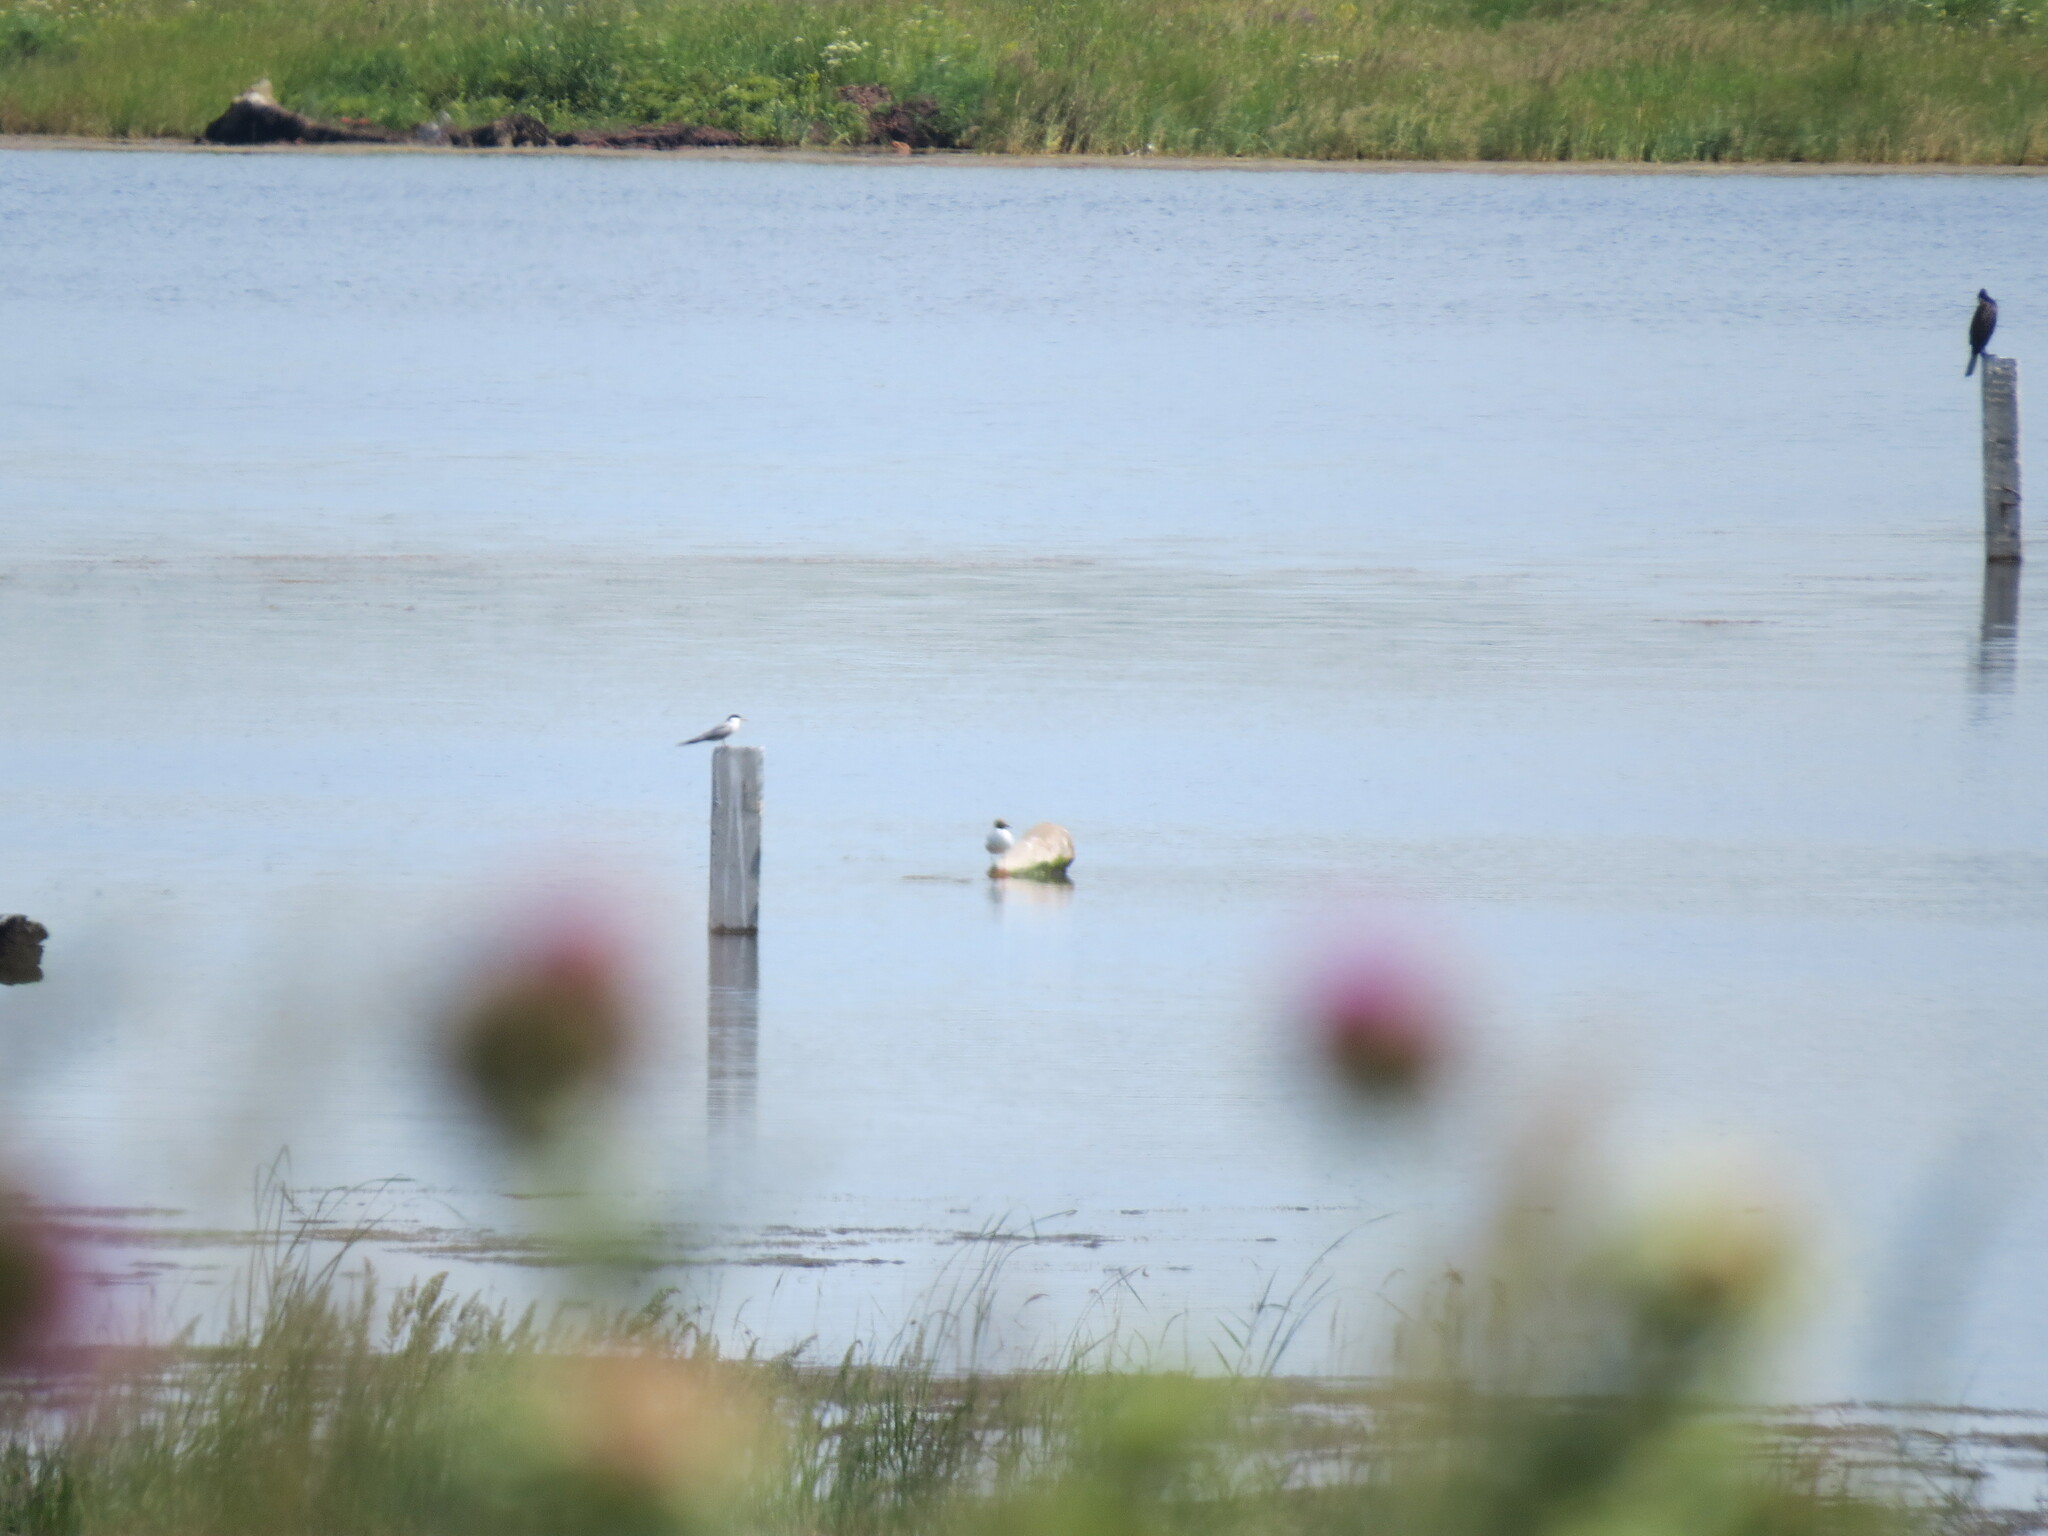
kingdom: Animalia
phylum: Chordata
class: Aves
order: Charadriiformes
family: Laridae
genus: Sterna
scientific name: Sterna hirundo
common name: Common tern
